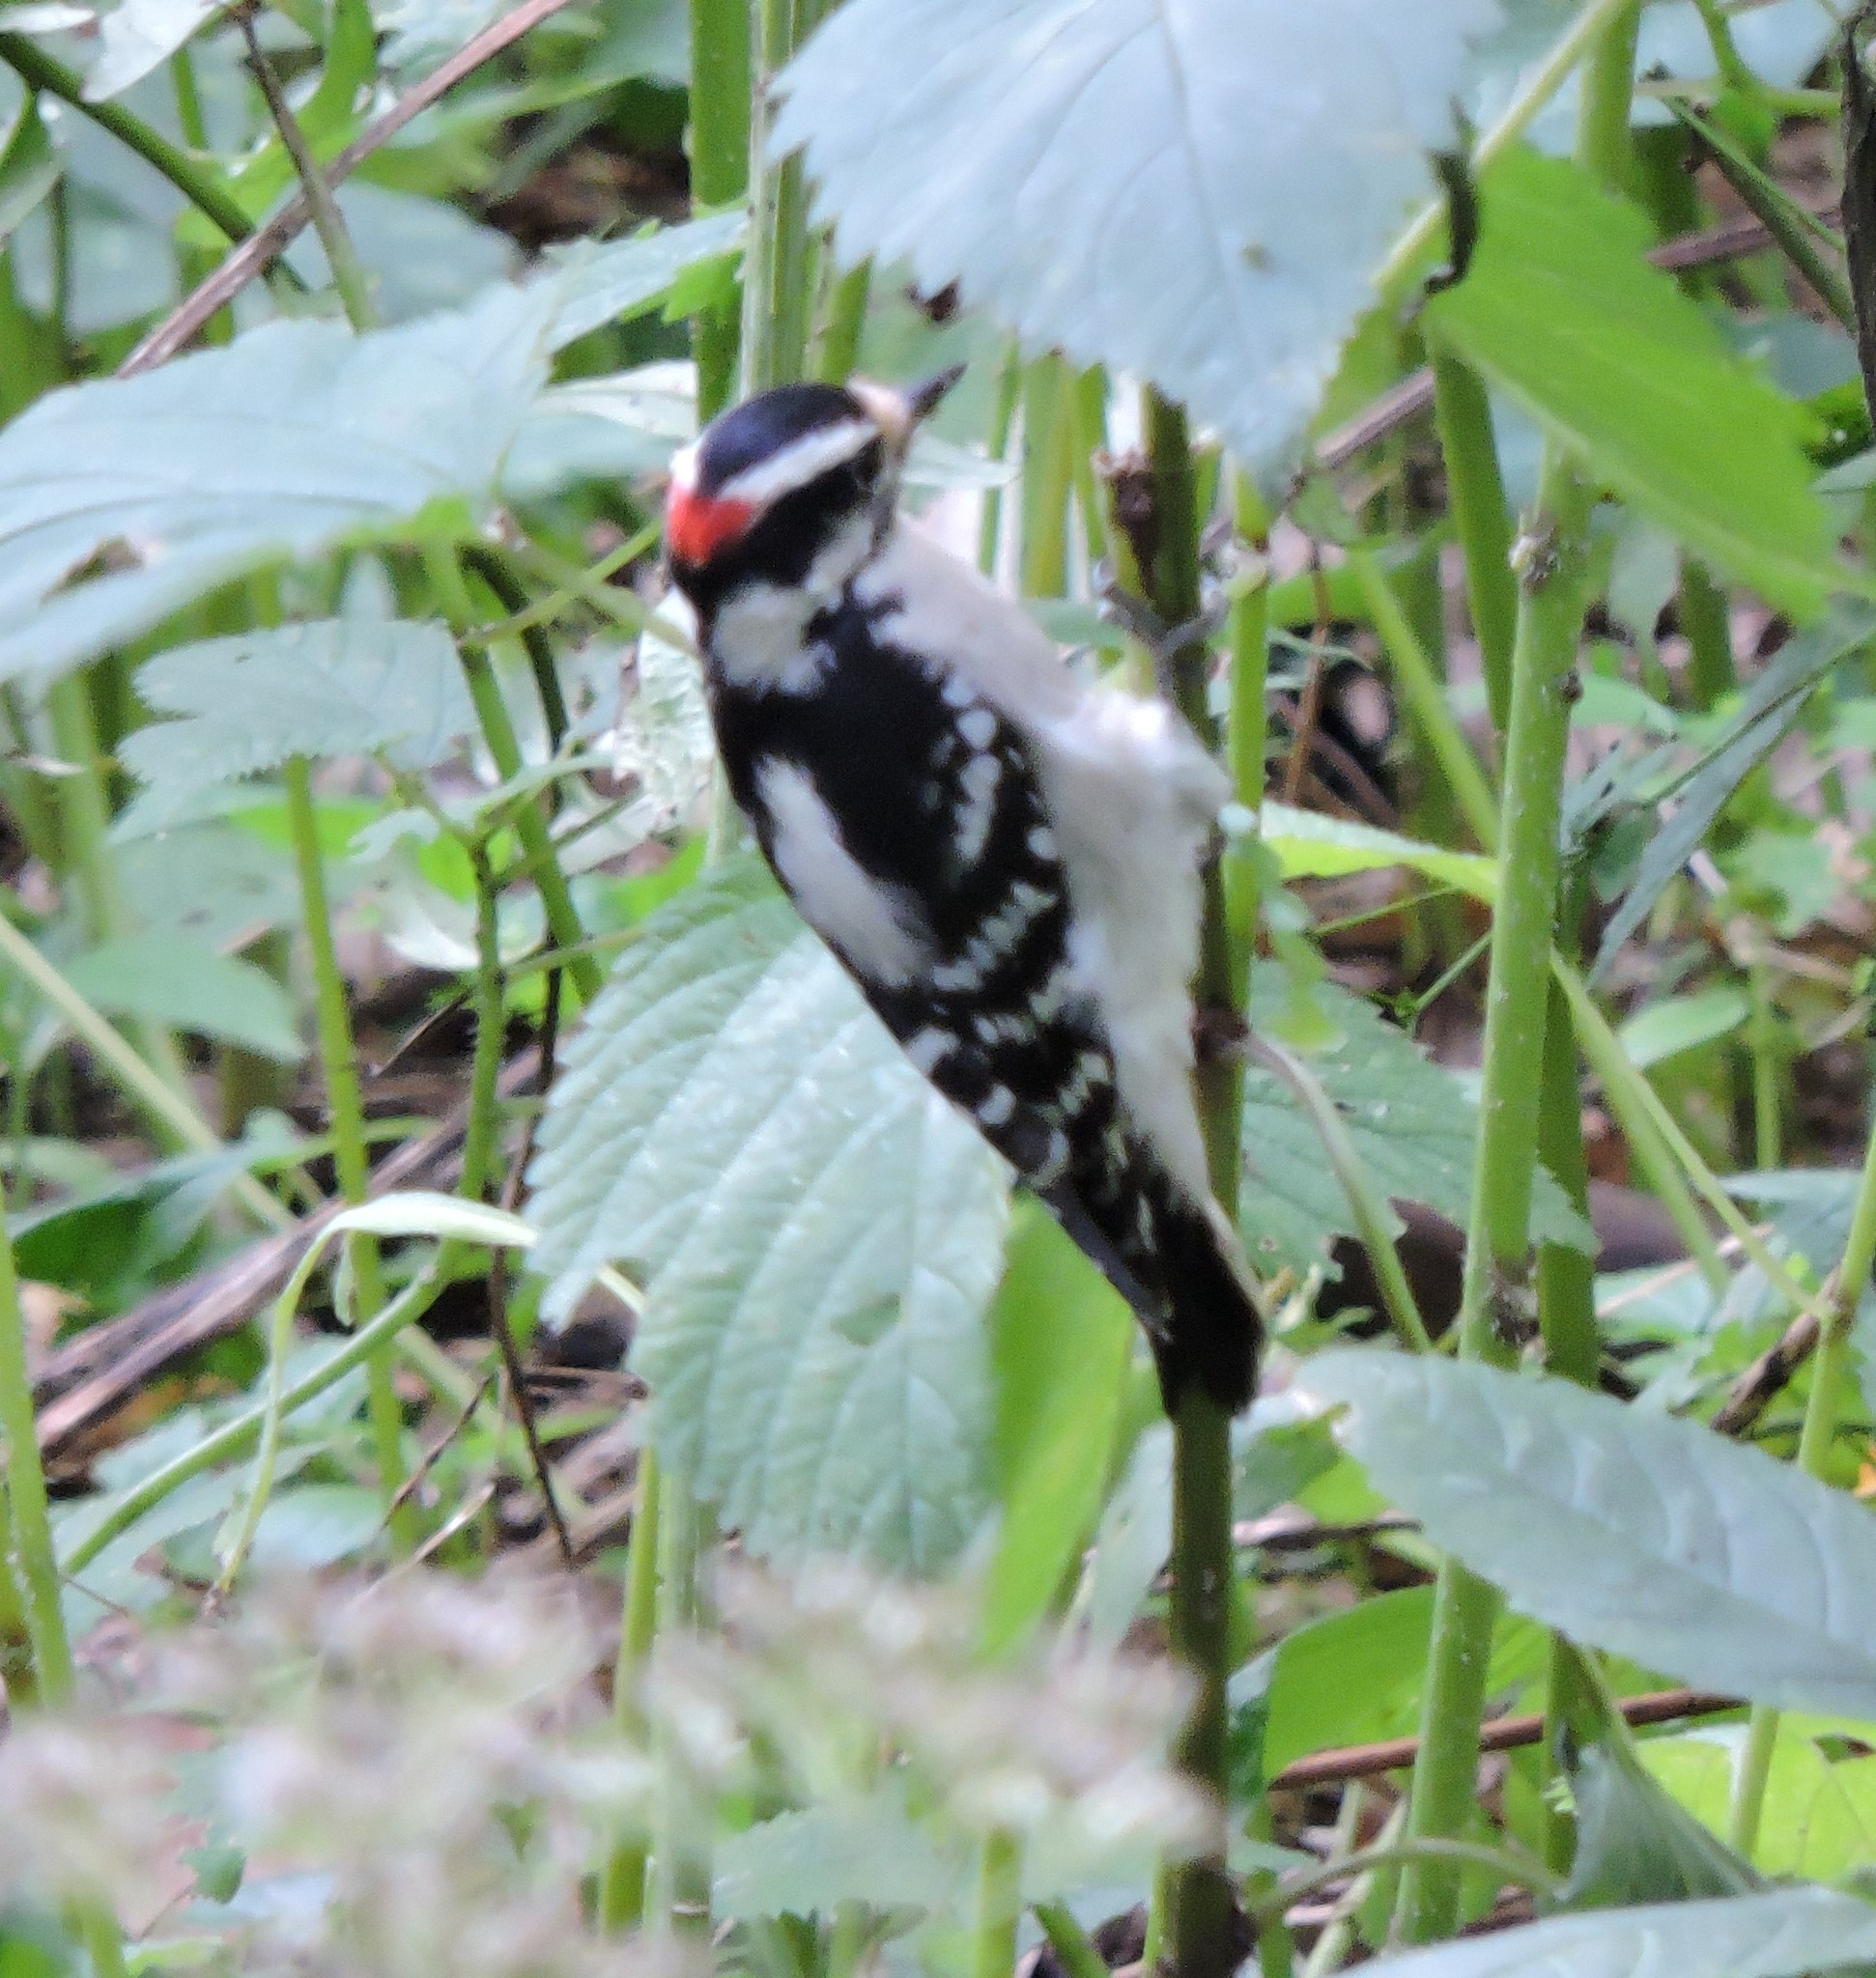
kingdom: Animalia
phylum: Chordata
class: Aves
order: Piciformes
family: Picidae
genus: Dryobates
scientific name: Dryobates pubescens
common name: Downy woodpecker
